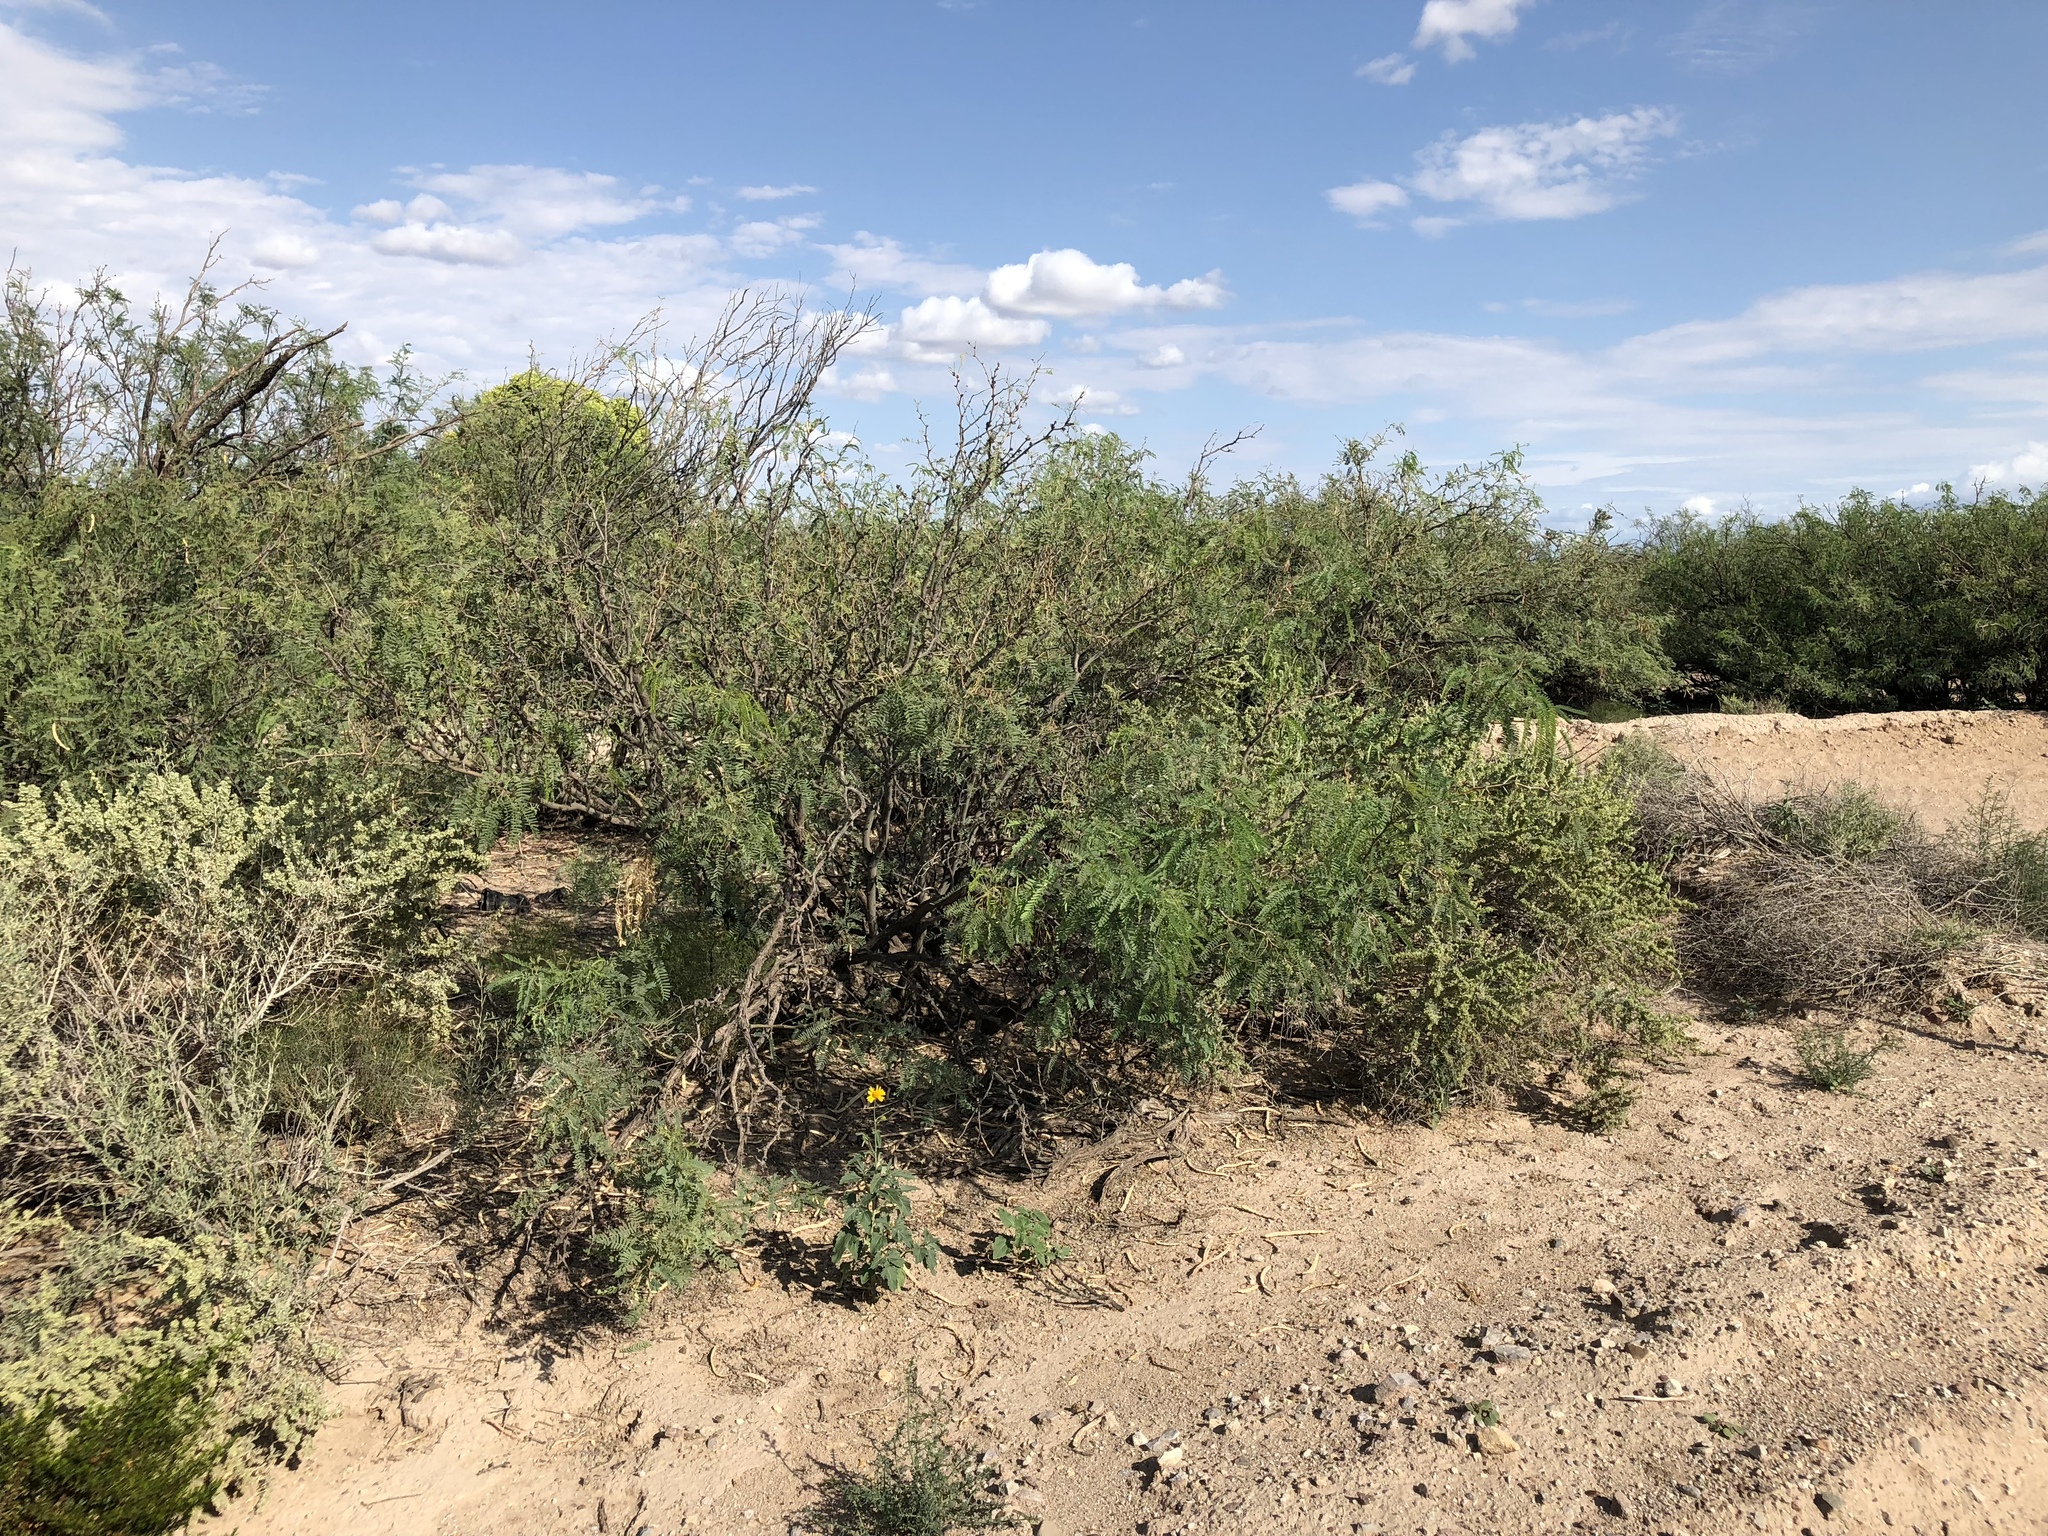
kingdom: Plantae
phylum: Tracheophyta
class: Magnoliopsida
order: Fabales
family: Fabaceae
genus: Prosopis
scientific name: Prosopis glandulosa
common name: Honey mesquite
